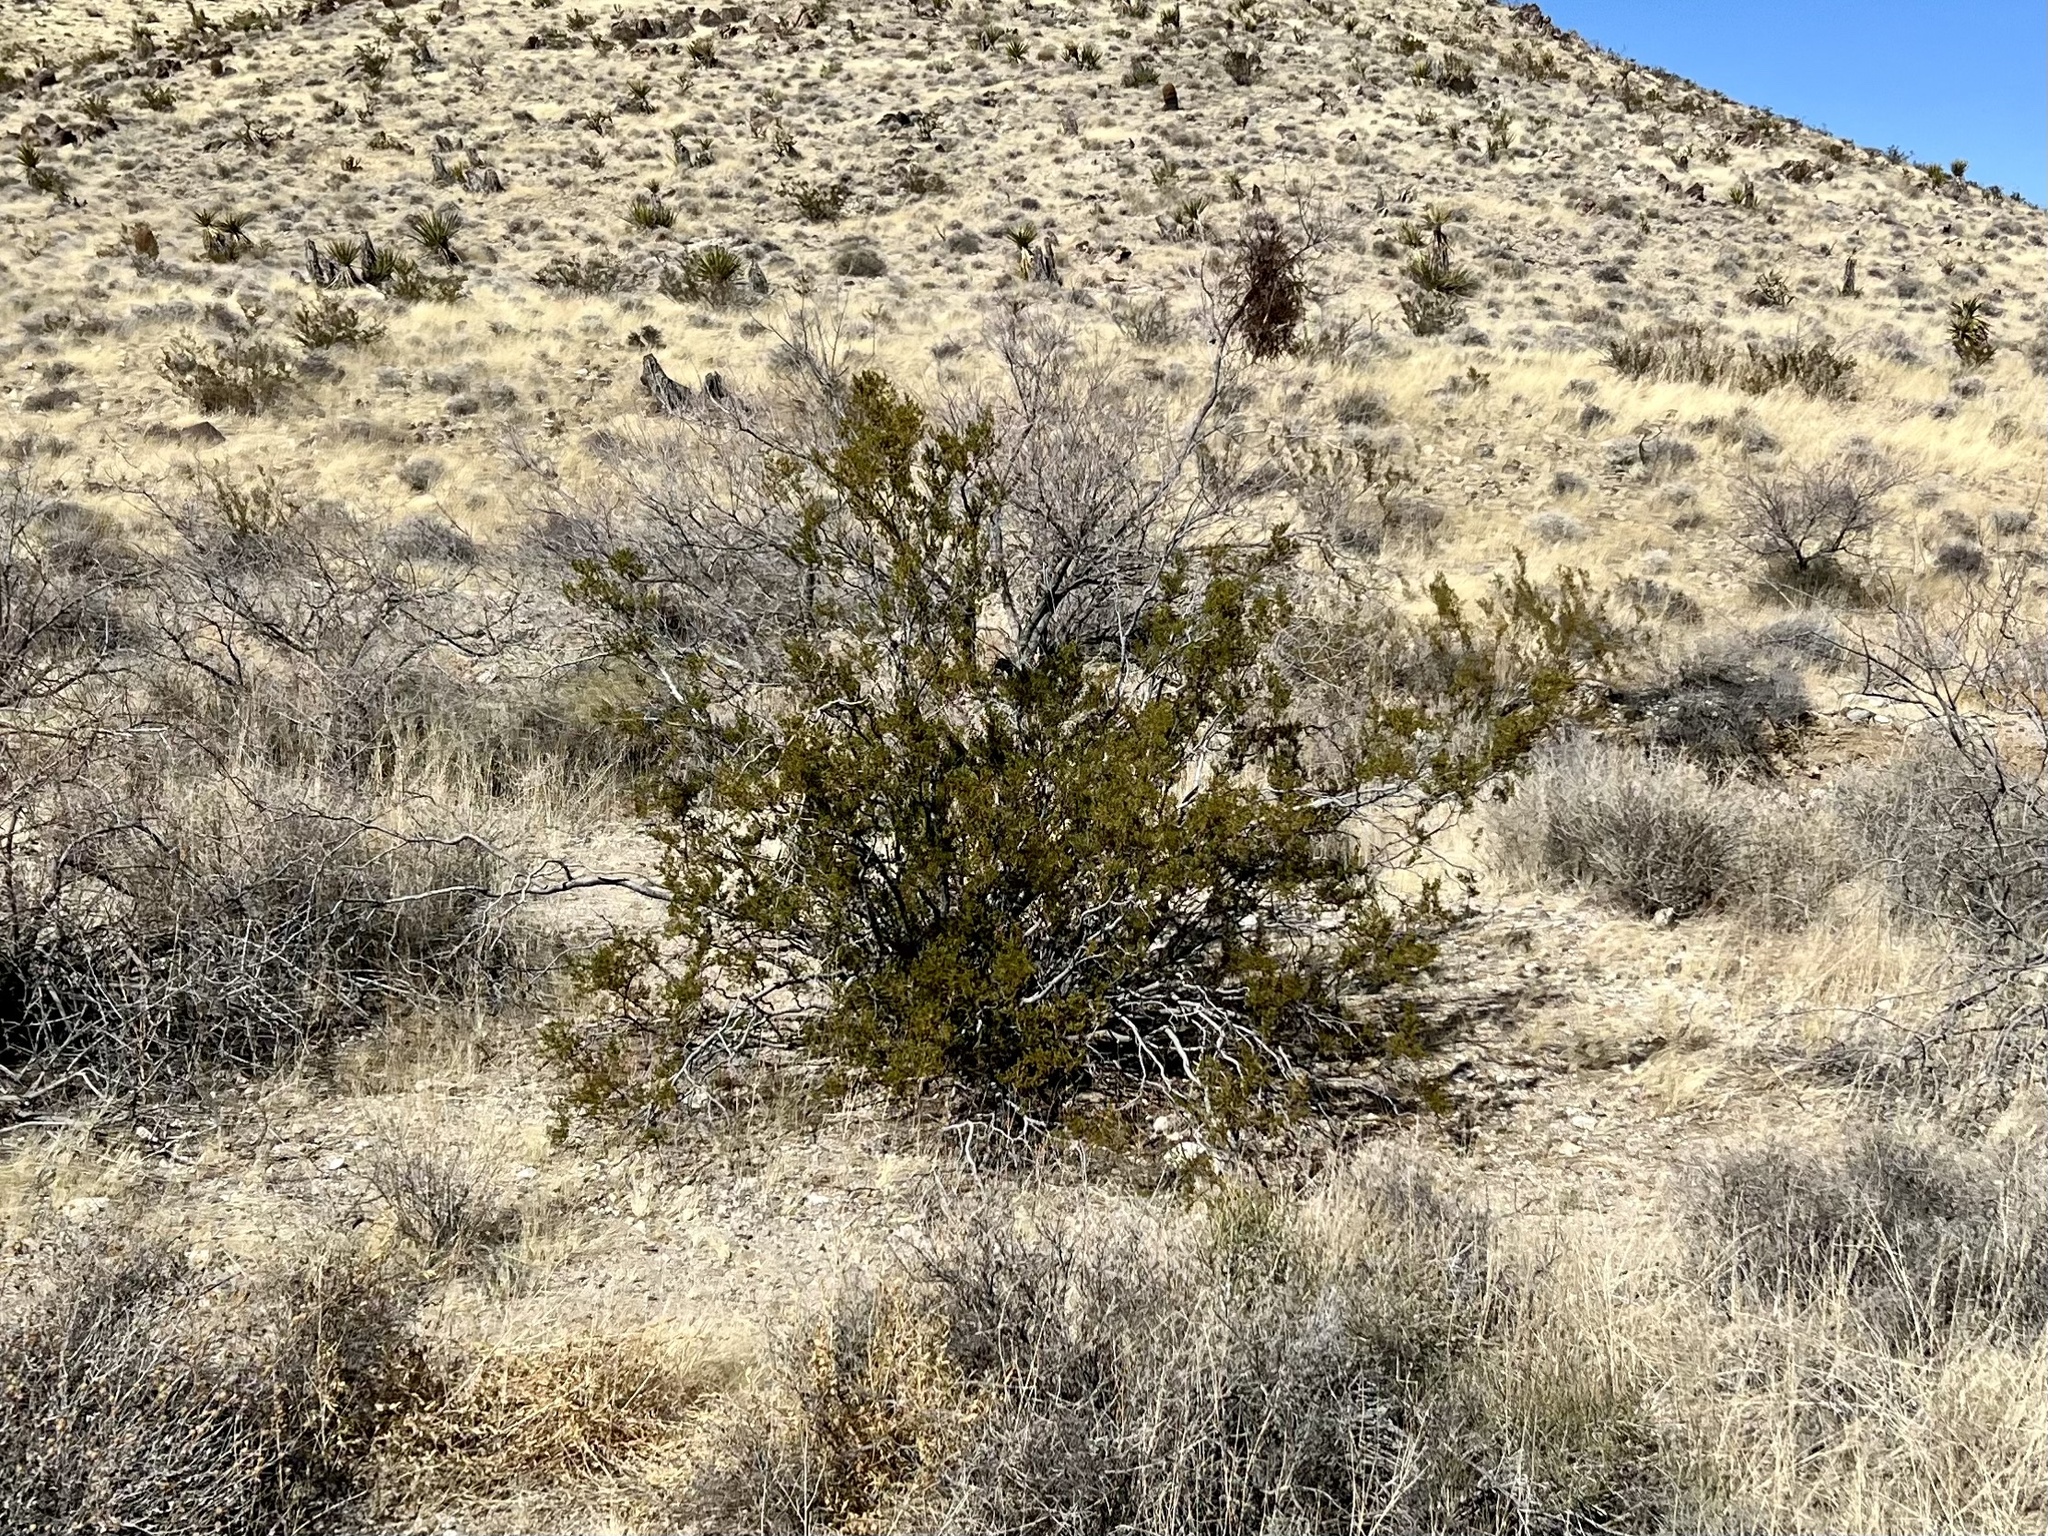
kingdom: Plantae
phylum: Tracheophyta
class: Magnoliopsida
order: Zygophyllales
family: Zygophyllaceae
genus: Larrea
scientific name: Larrea tridentata
